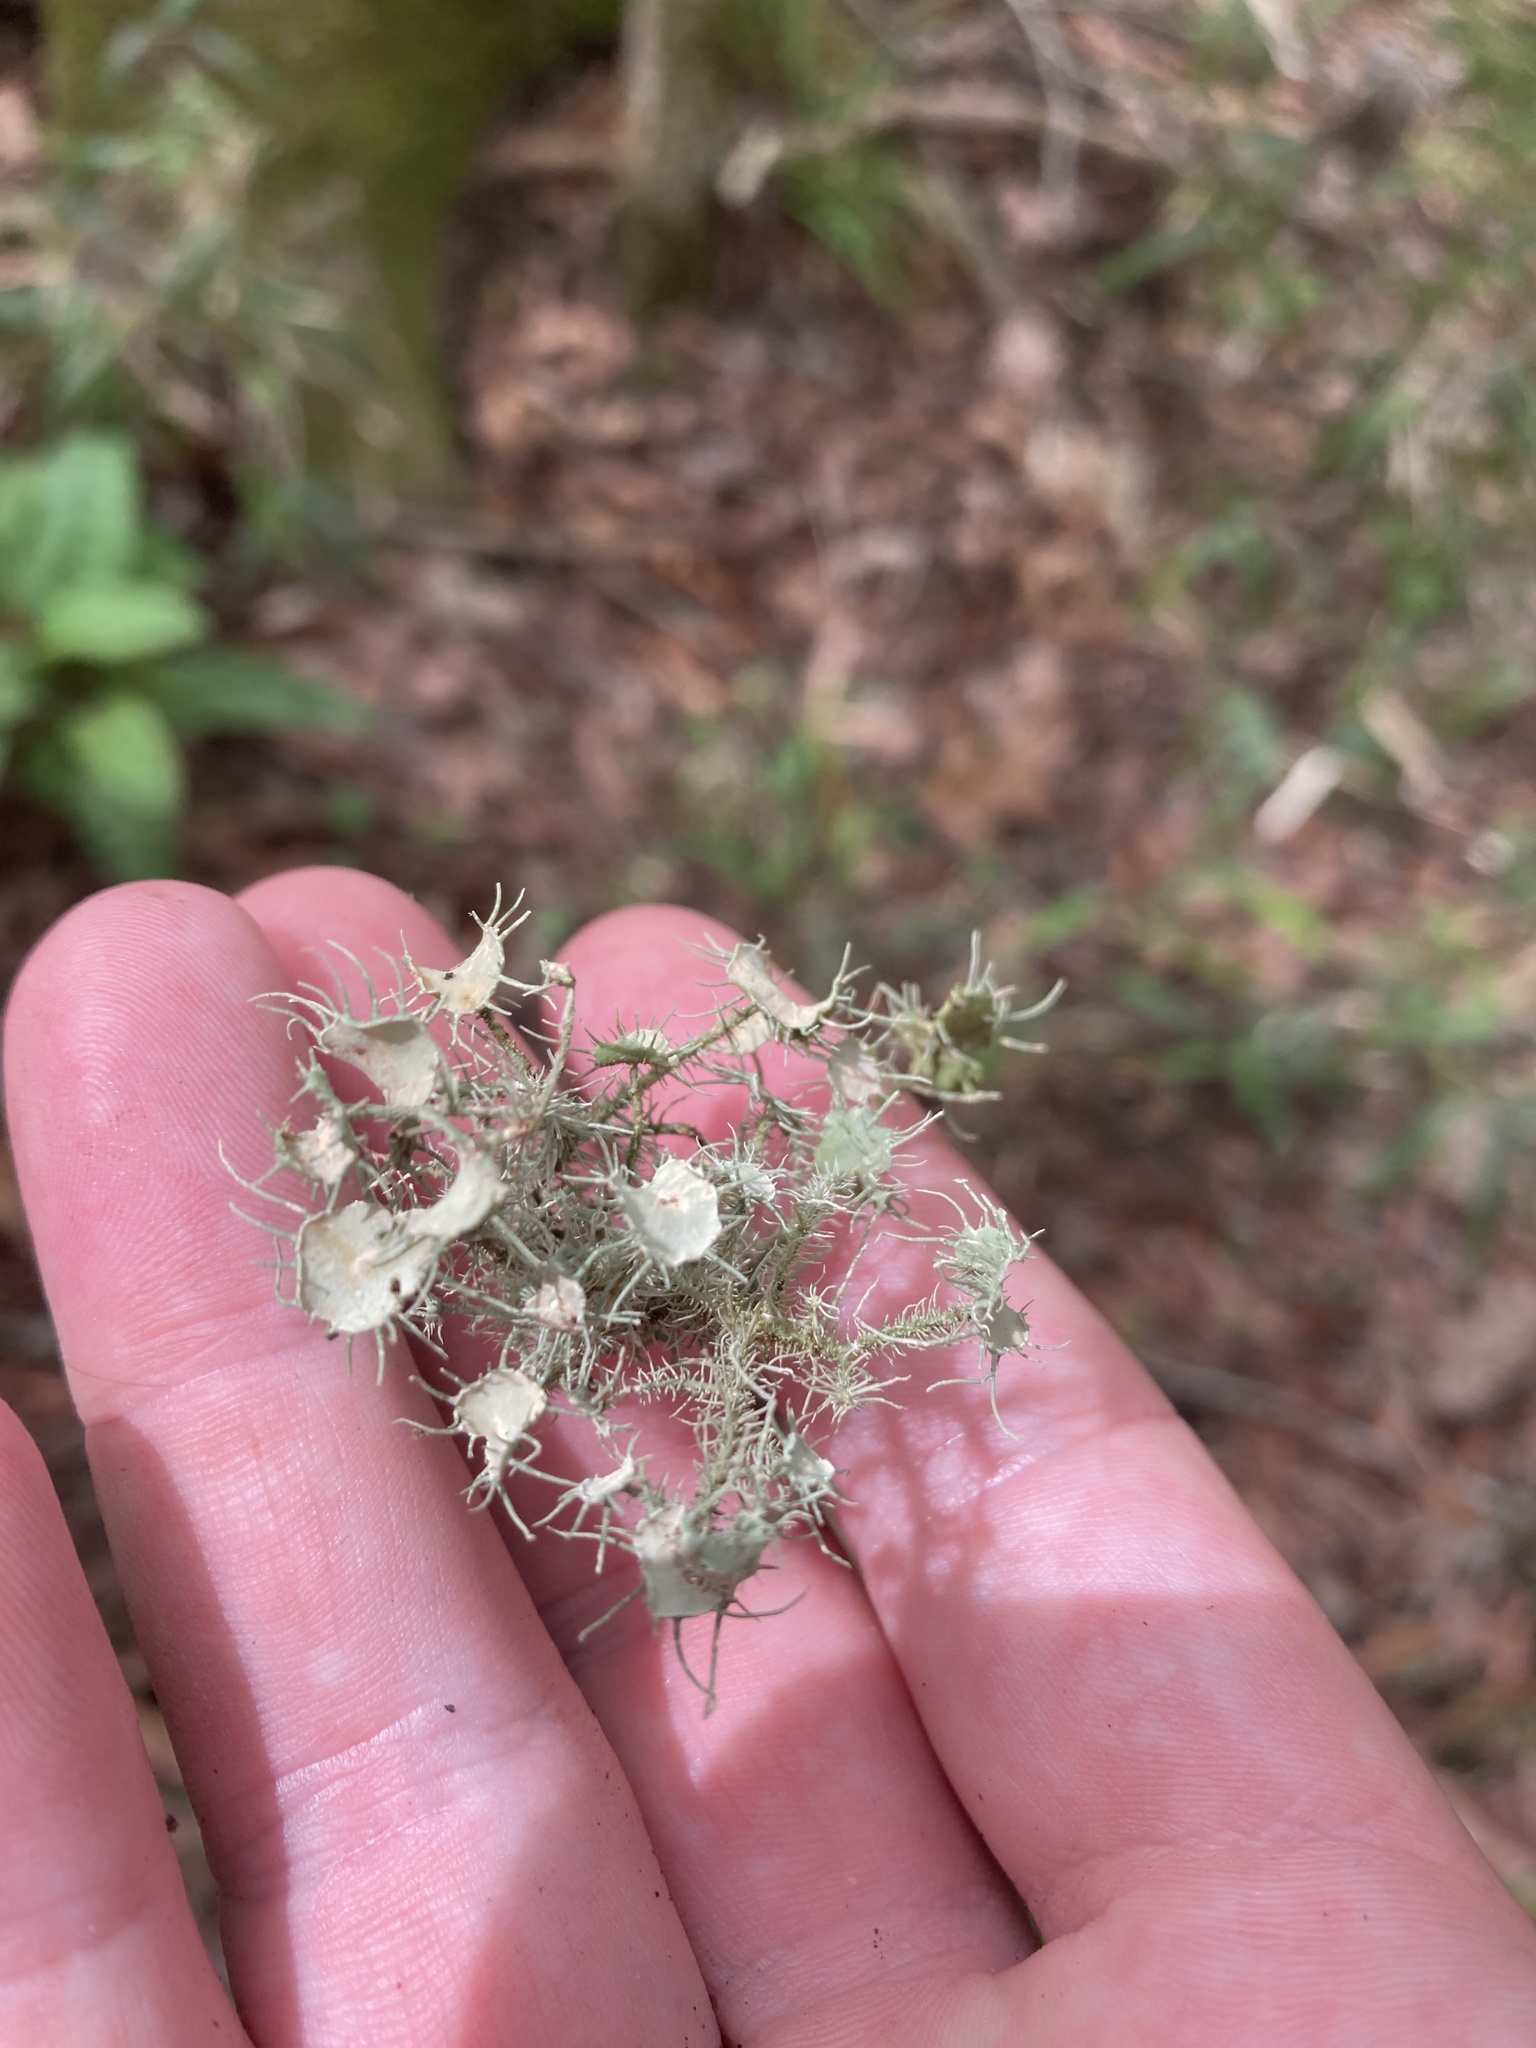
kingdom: Fungi
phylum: Ascomycota
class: Lecanoromycetes
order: Lecanorales
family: Parmeliaceae
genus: Usnea
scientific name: Usnea strigosa
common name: Bushy beard lichen
